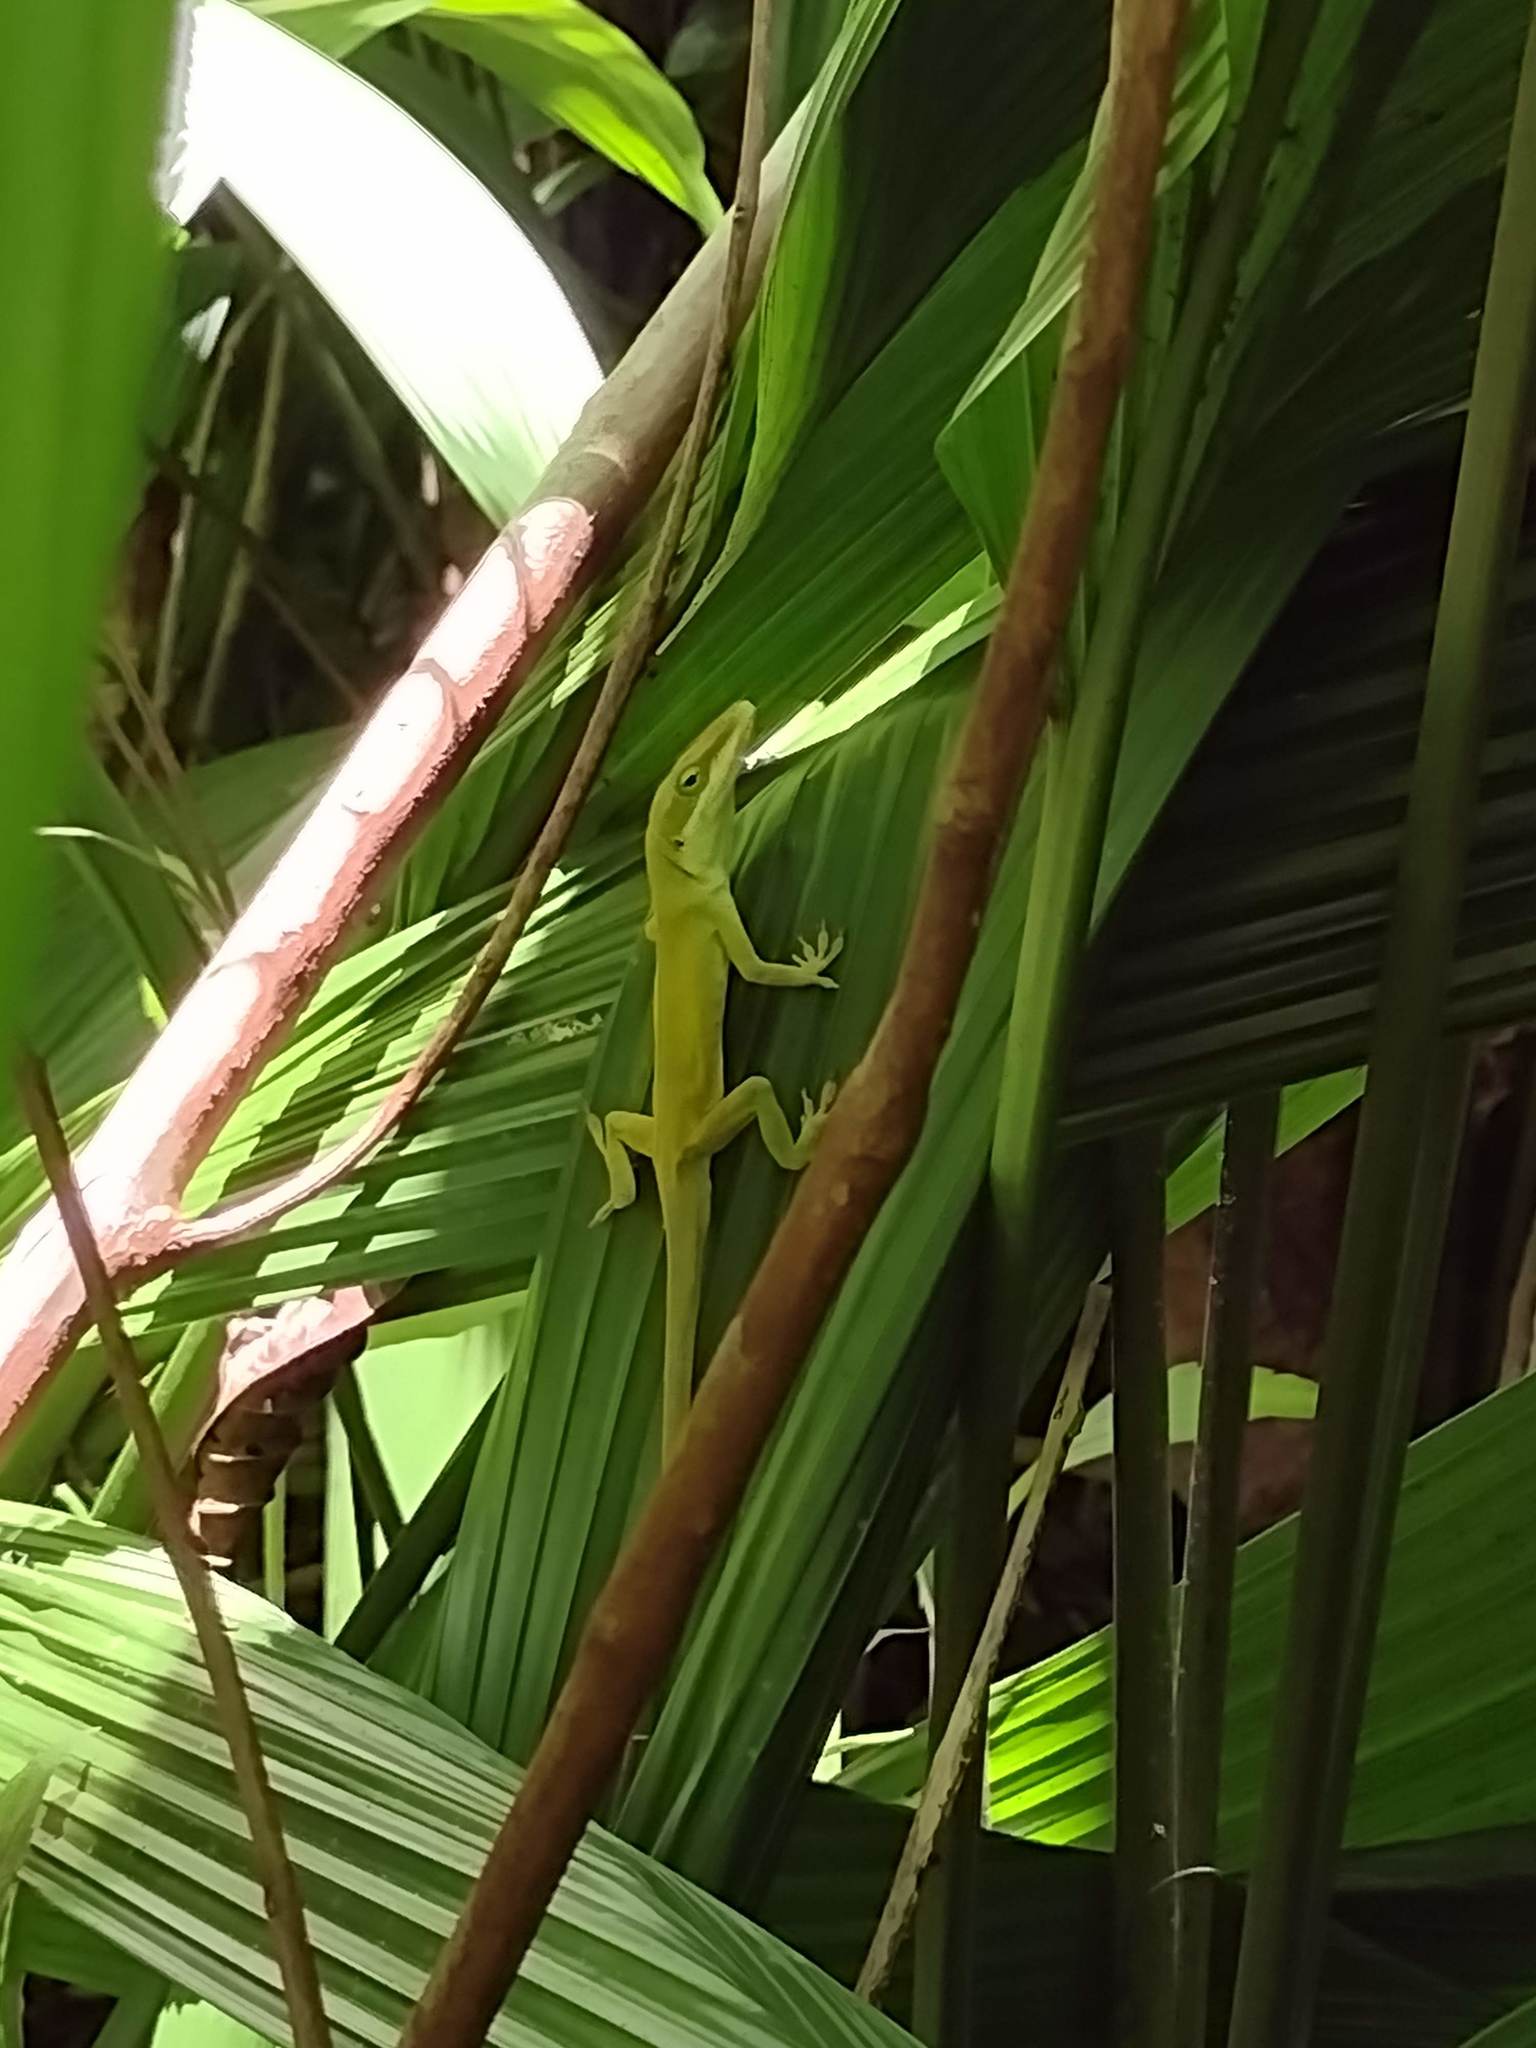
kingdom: Animalia
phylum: Chordata
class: Squamata
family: Dactyloidae
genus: Anolis
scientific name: Anolis carolinensis
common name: Green anole
